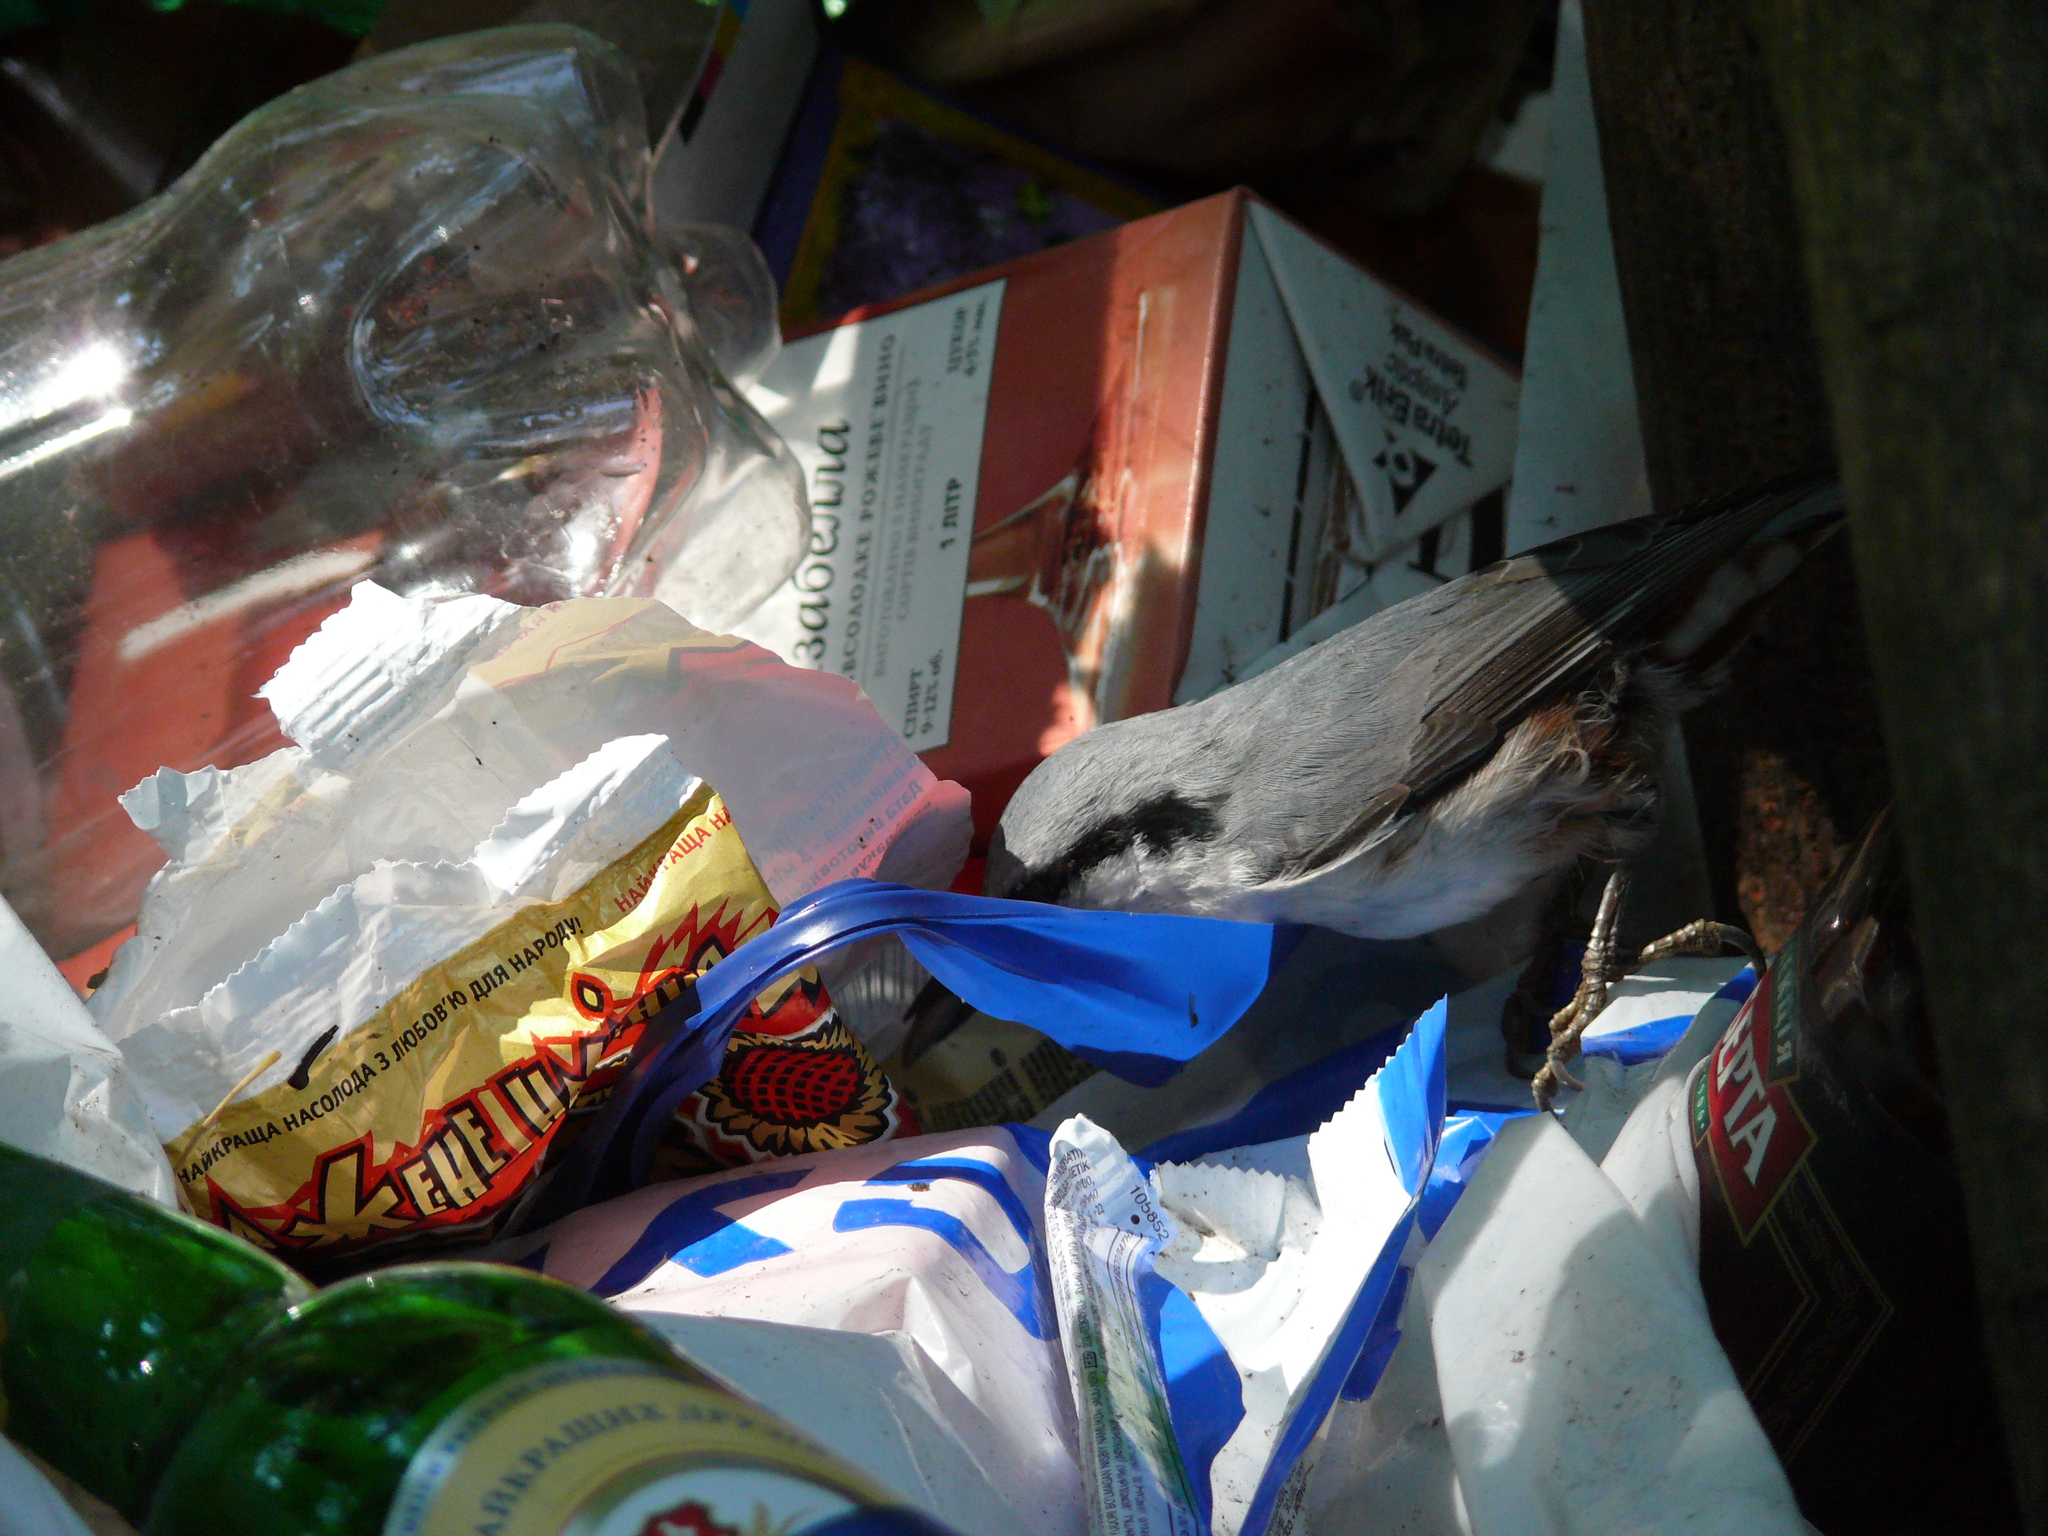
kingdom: Animalia
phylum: Chordata
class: Aves
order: Passeriformes
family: Sittidae
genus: Sitta
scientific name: Sitta europaea
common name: Eurasian nuthatch
